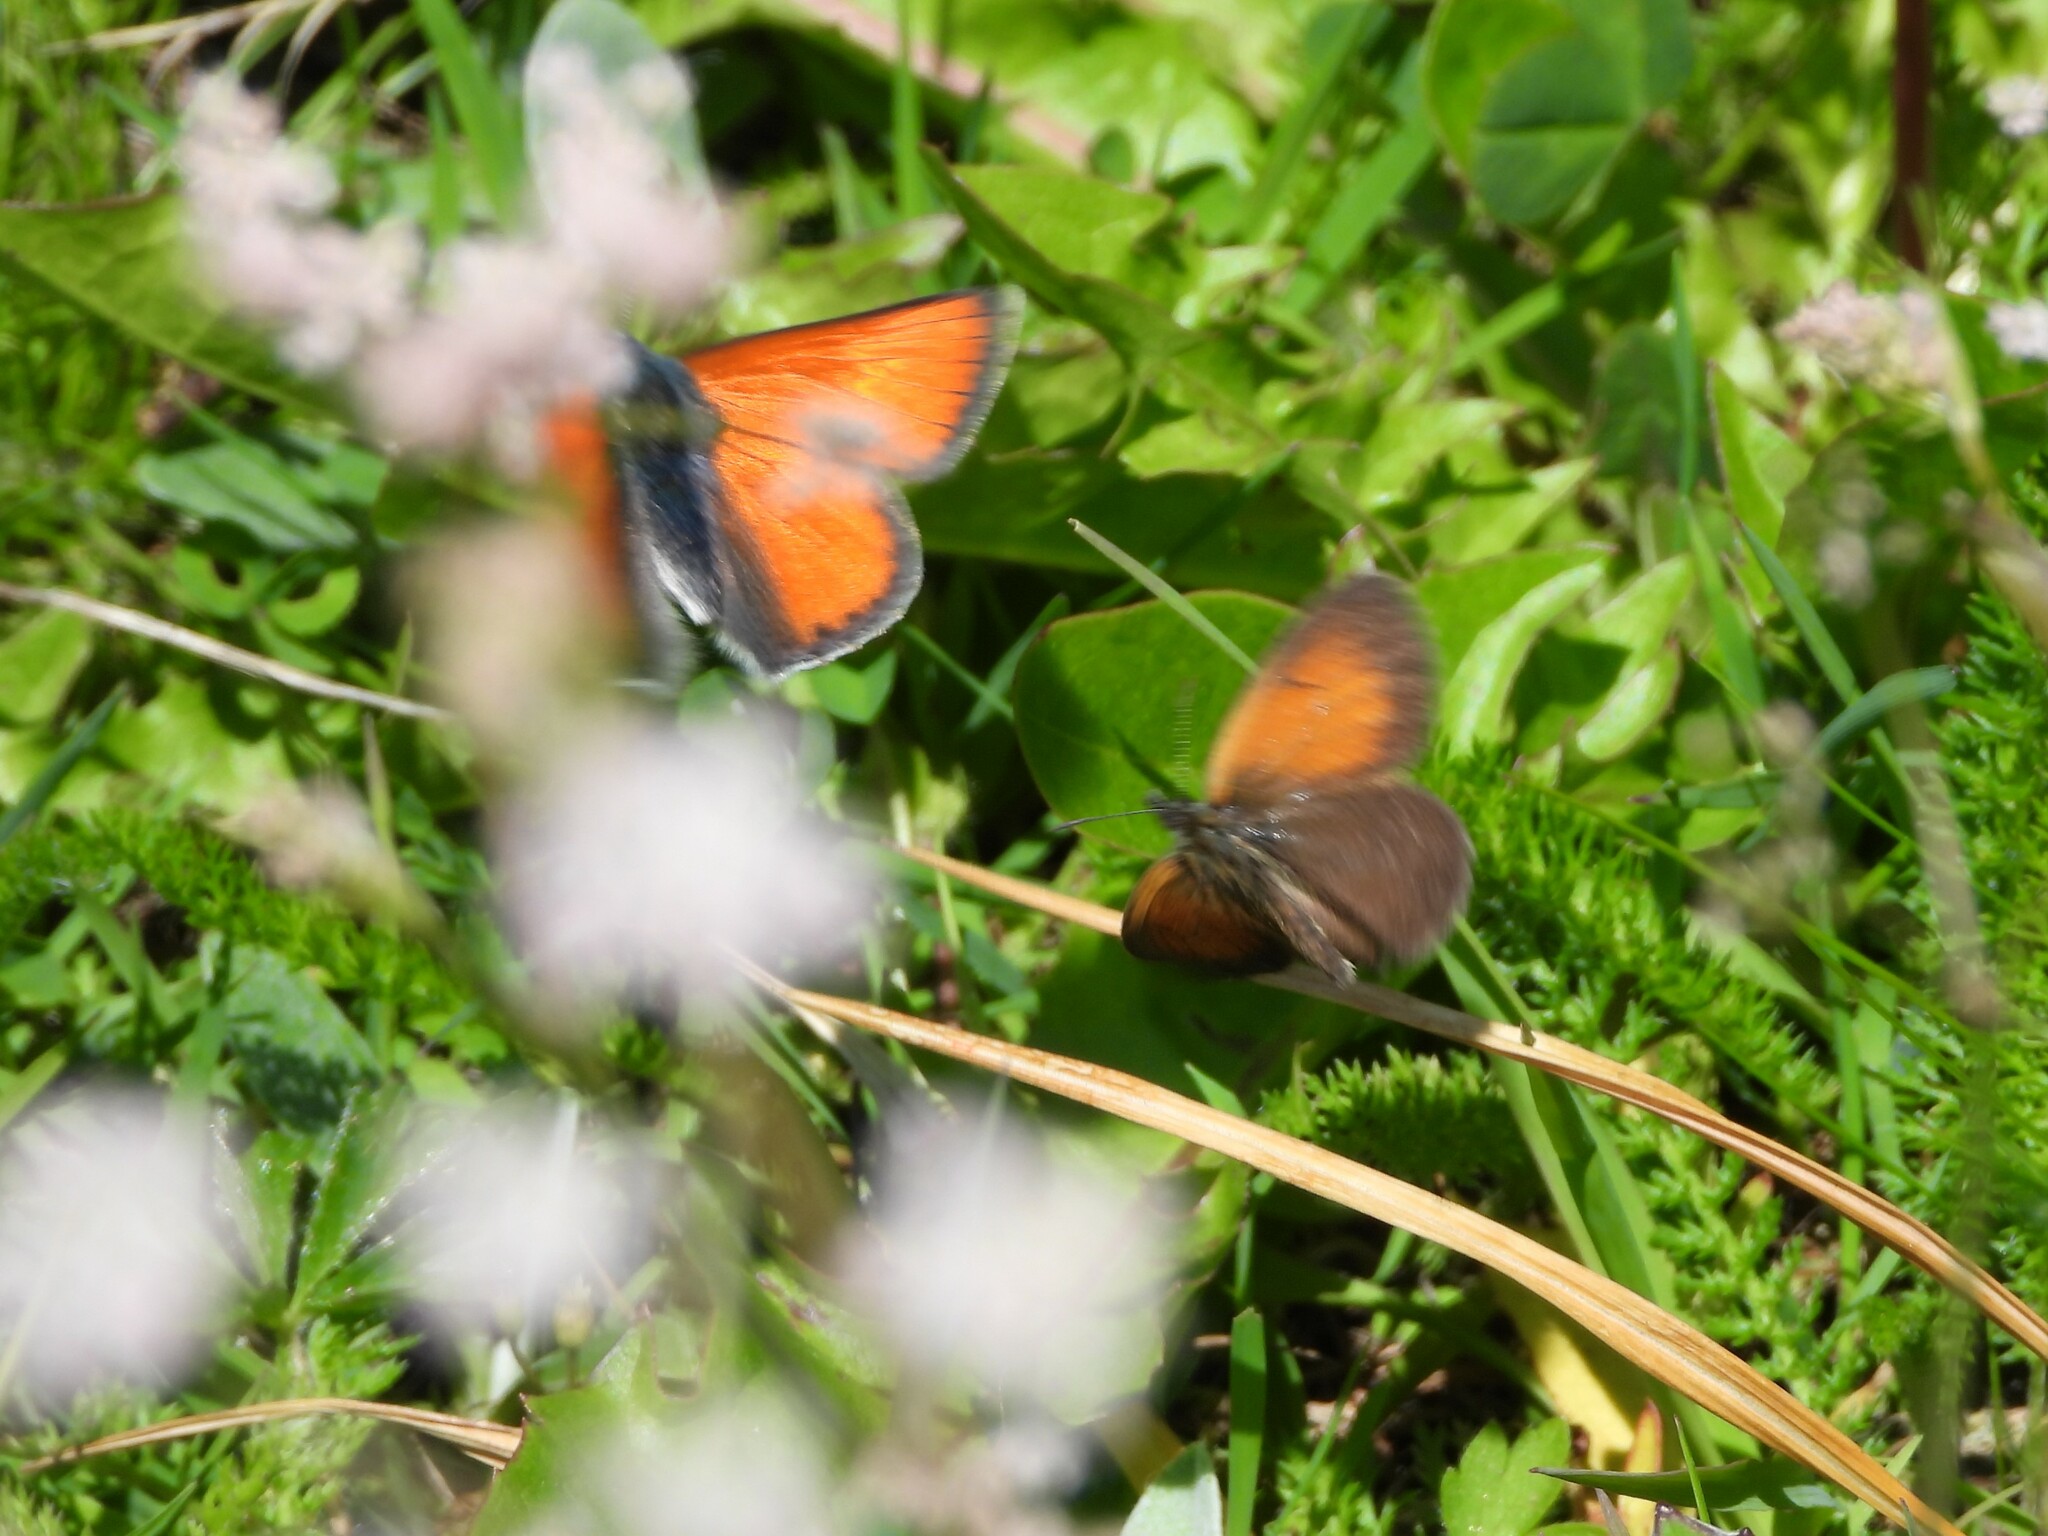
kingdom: Animalia
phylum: Arthropoda
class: Insecta
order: Lepidoptera
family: Lycaenidae
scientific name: Lycaenidae
